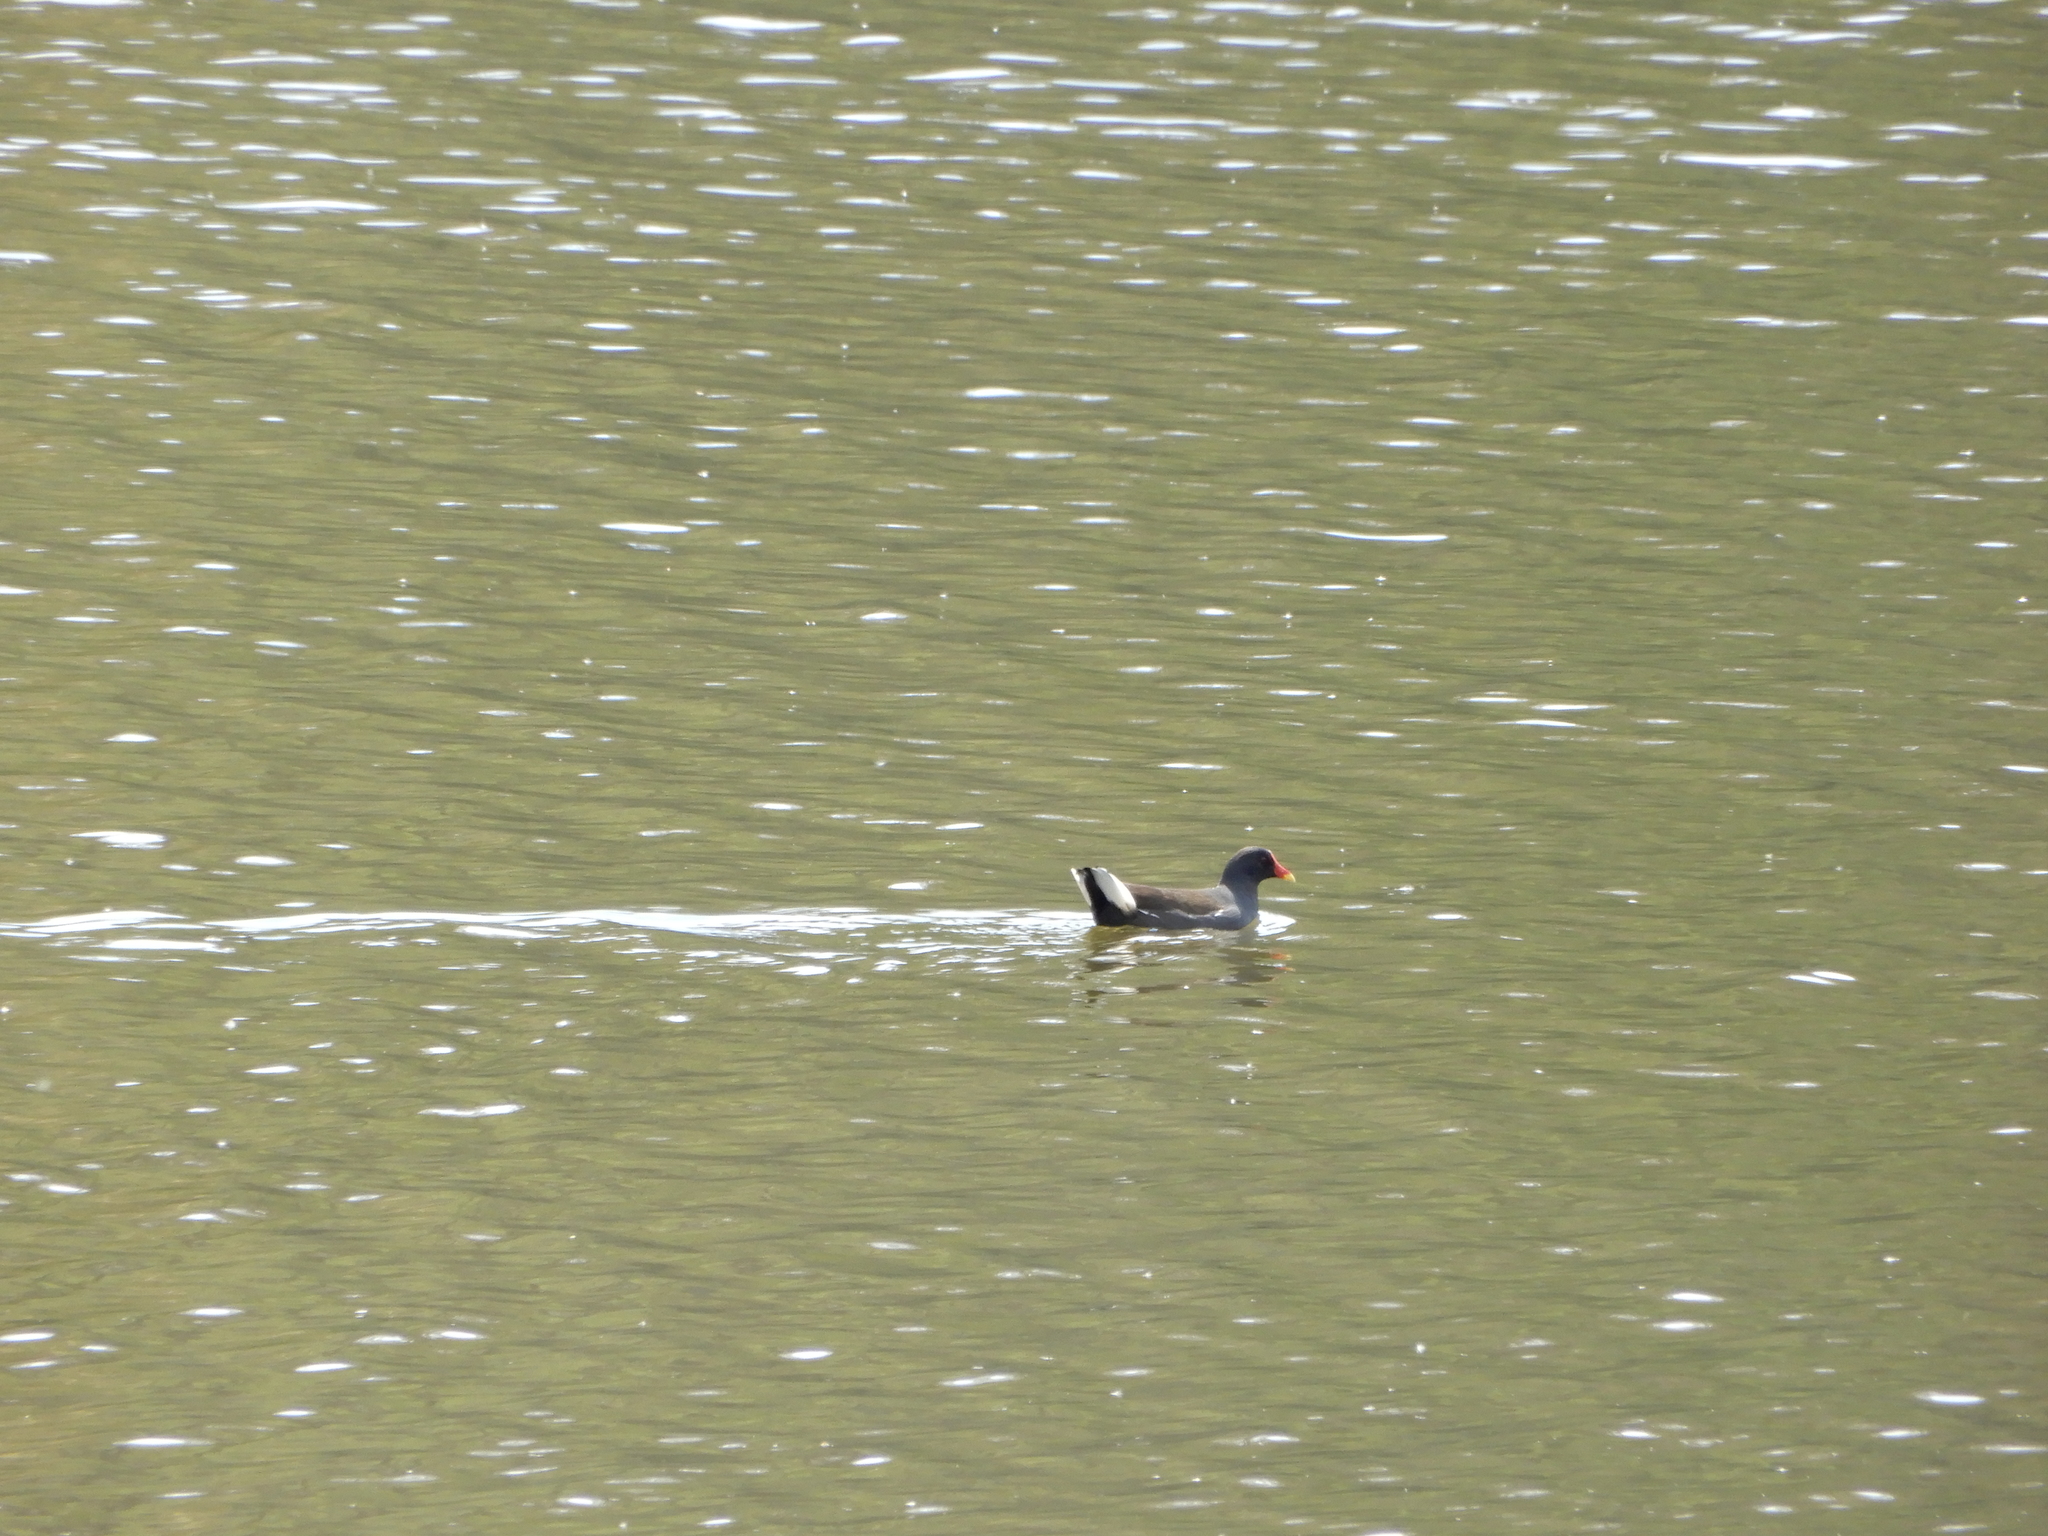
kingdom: Animalia
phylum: Chordata
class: Aves
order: Gruiformes
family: Rallidae
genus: Gallinula
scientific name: Gallinula chloropus
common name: Common moorhen
